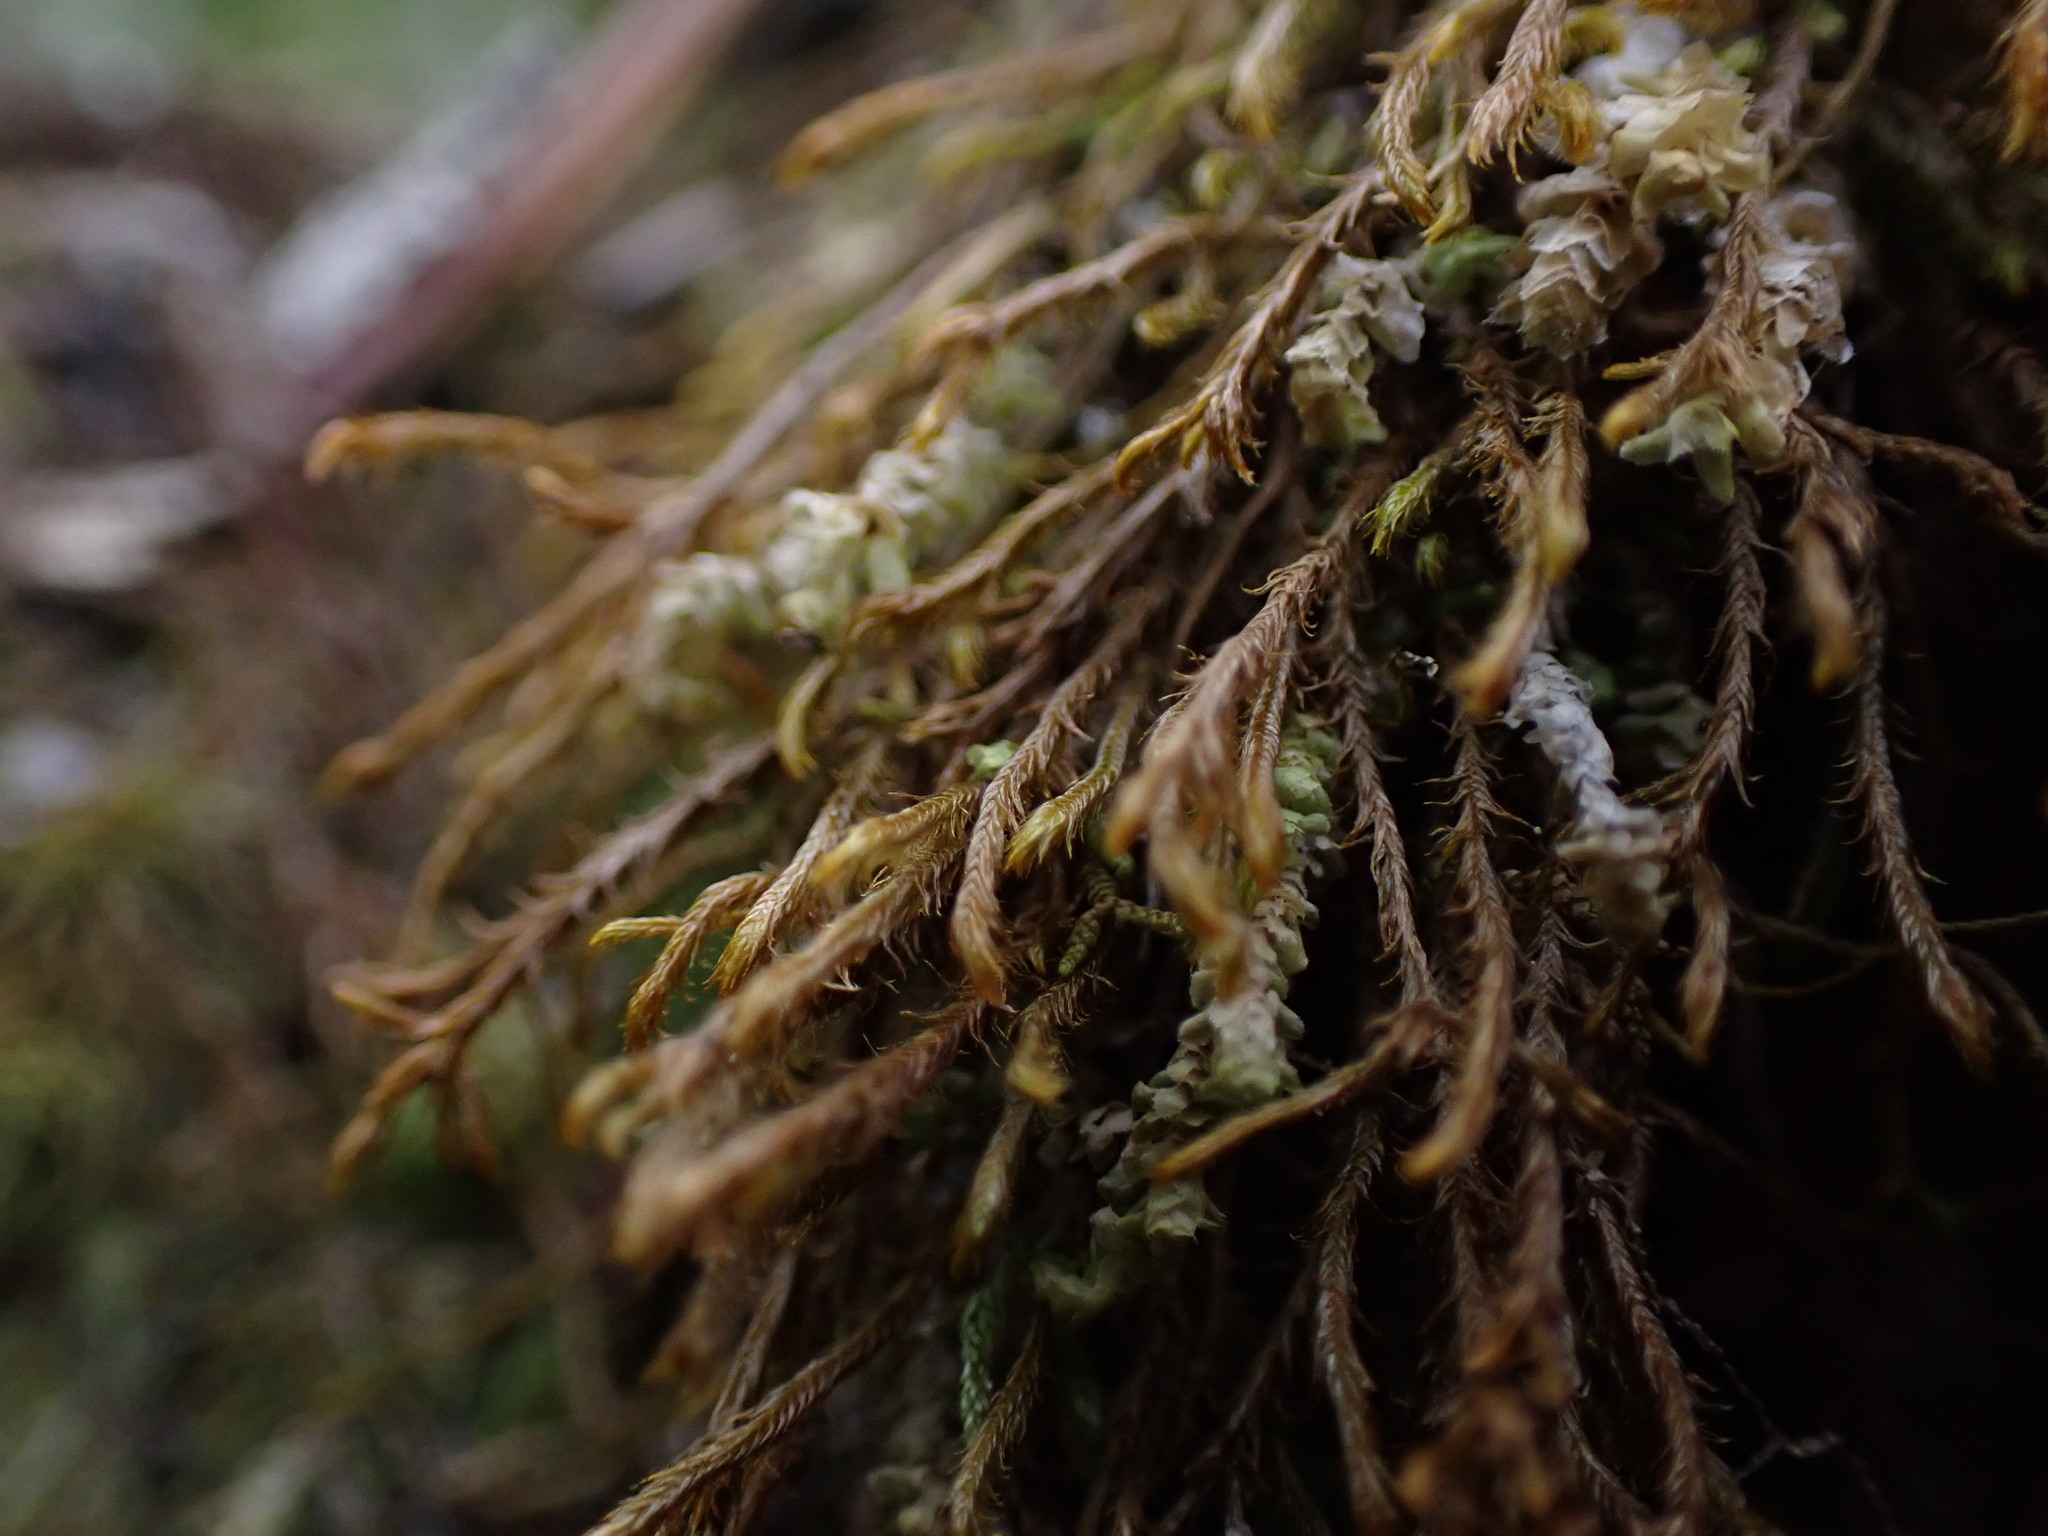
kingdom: Plantae
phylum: Marchantiophyta
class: Jungermanniopsida
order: Jungermanniales
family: Herbertaceae
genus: Herbertus
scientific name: Herbertus aduncus
